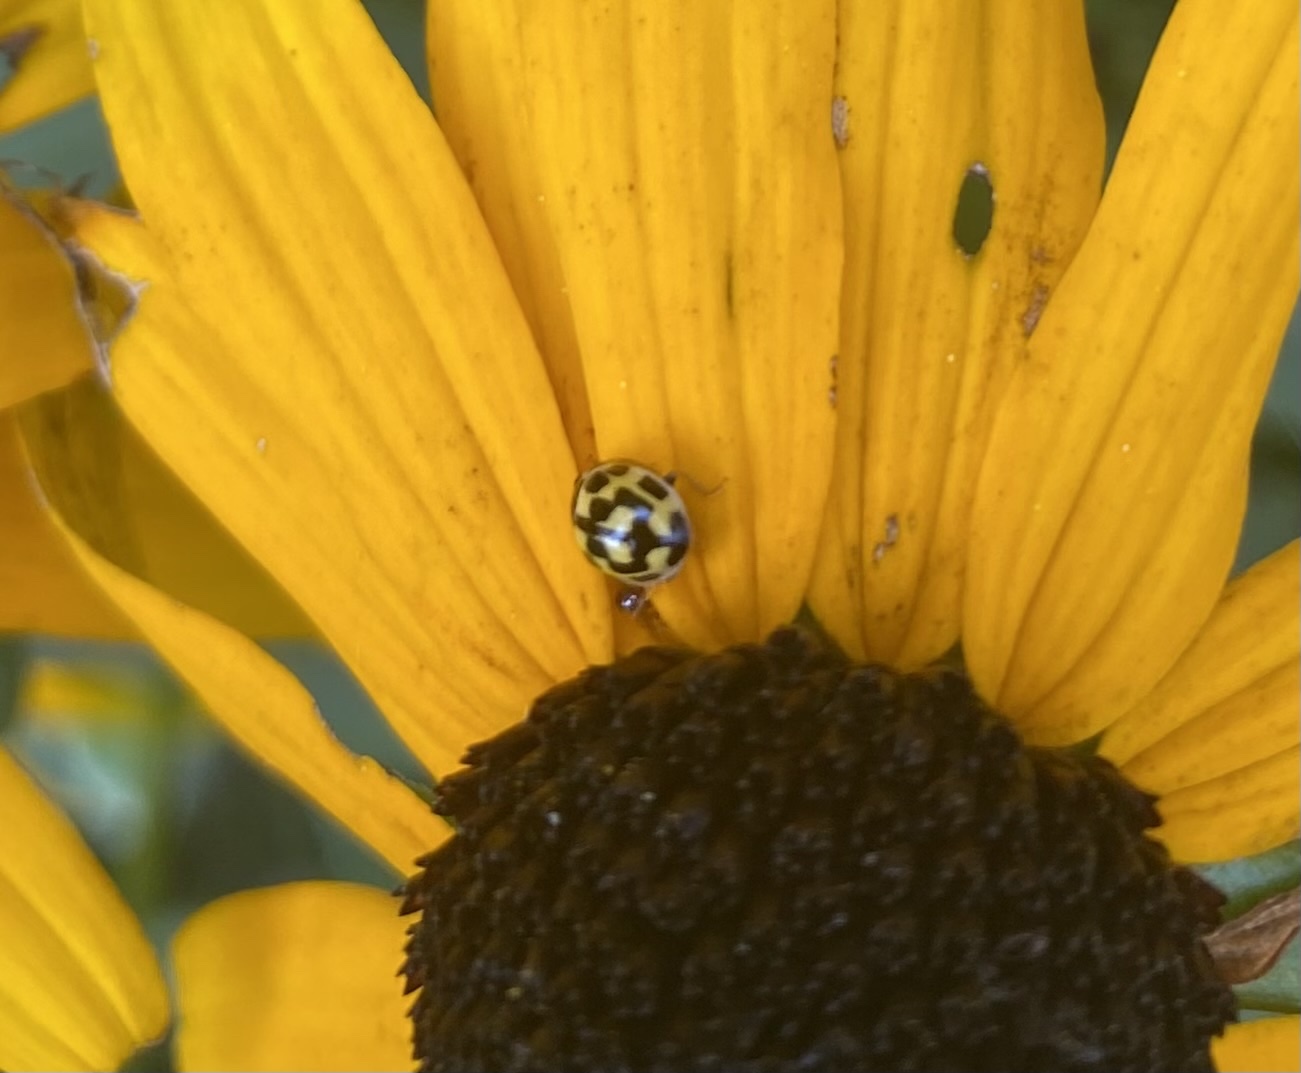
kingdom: Animalia
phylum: Arthropoda
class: Insecta
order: Coleoptera
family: Coccinellidae
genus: Propylaea
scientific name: Propylaea quatuordecimpunctata
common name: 14-spotted ladybird beetle
